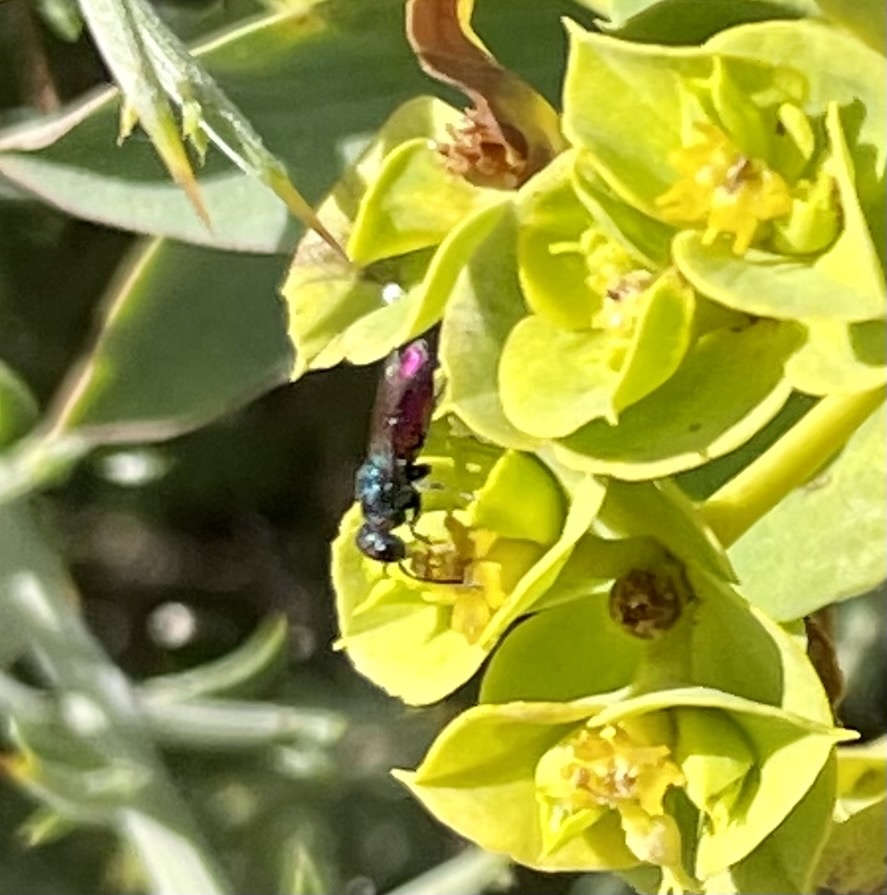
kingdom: Animalia
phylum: Arthropoda
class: Insecta
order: Hymenoptera
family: Chrysididae
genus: Chrysis
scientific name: Chrysis gracillima
